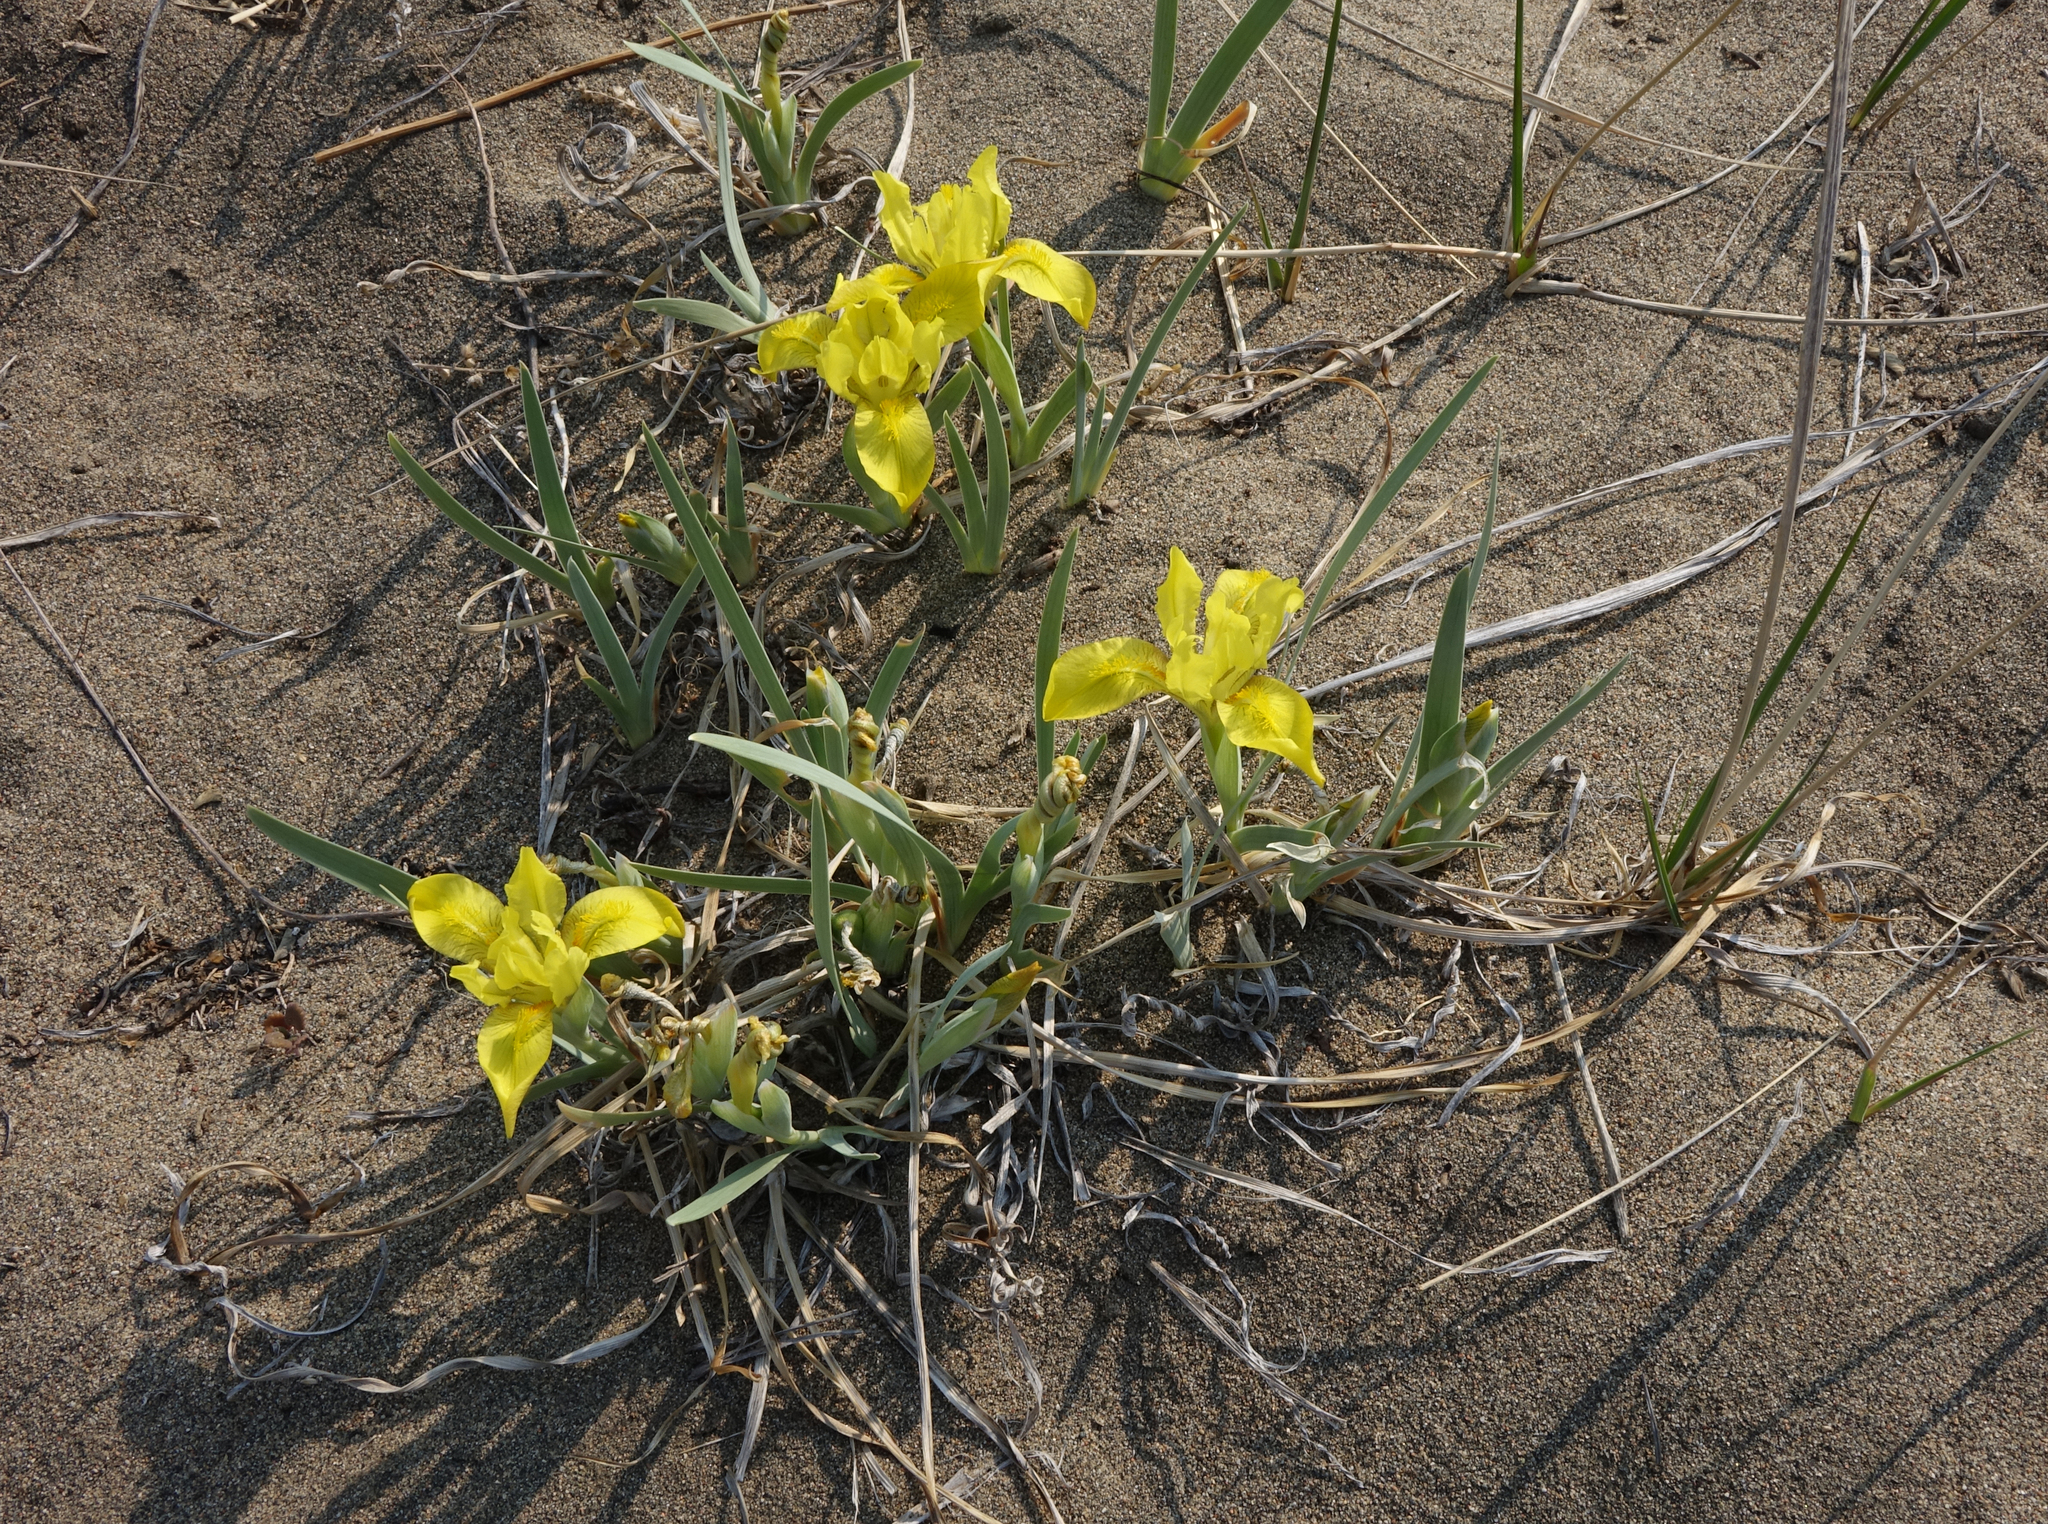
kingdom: Plantae
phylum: Tracheophyta
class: Liliopsida
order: Asparagales
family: Iridaceae
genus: Iris
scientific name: Iris humilis
